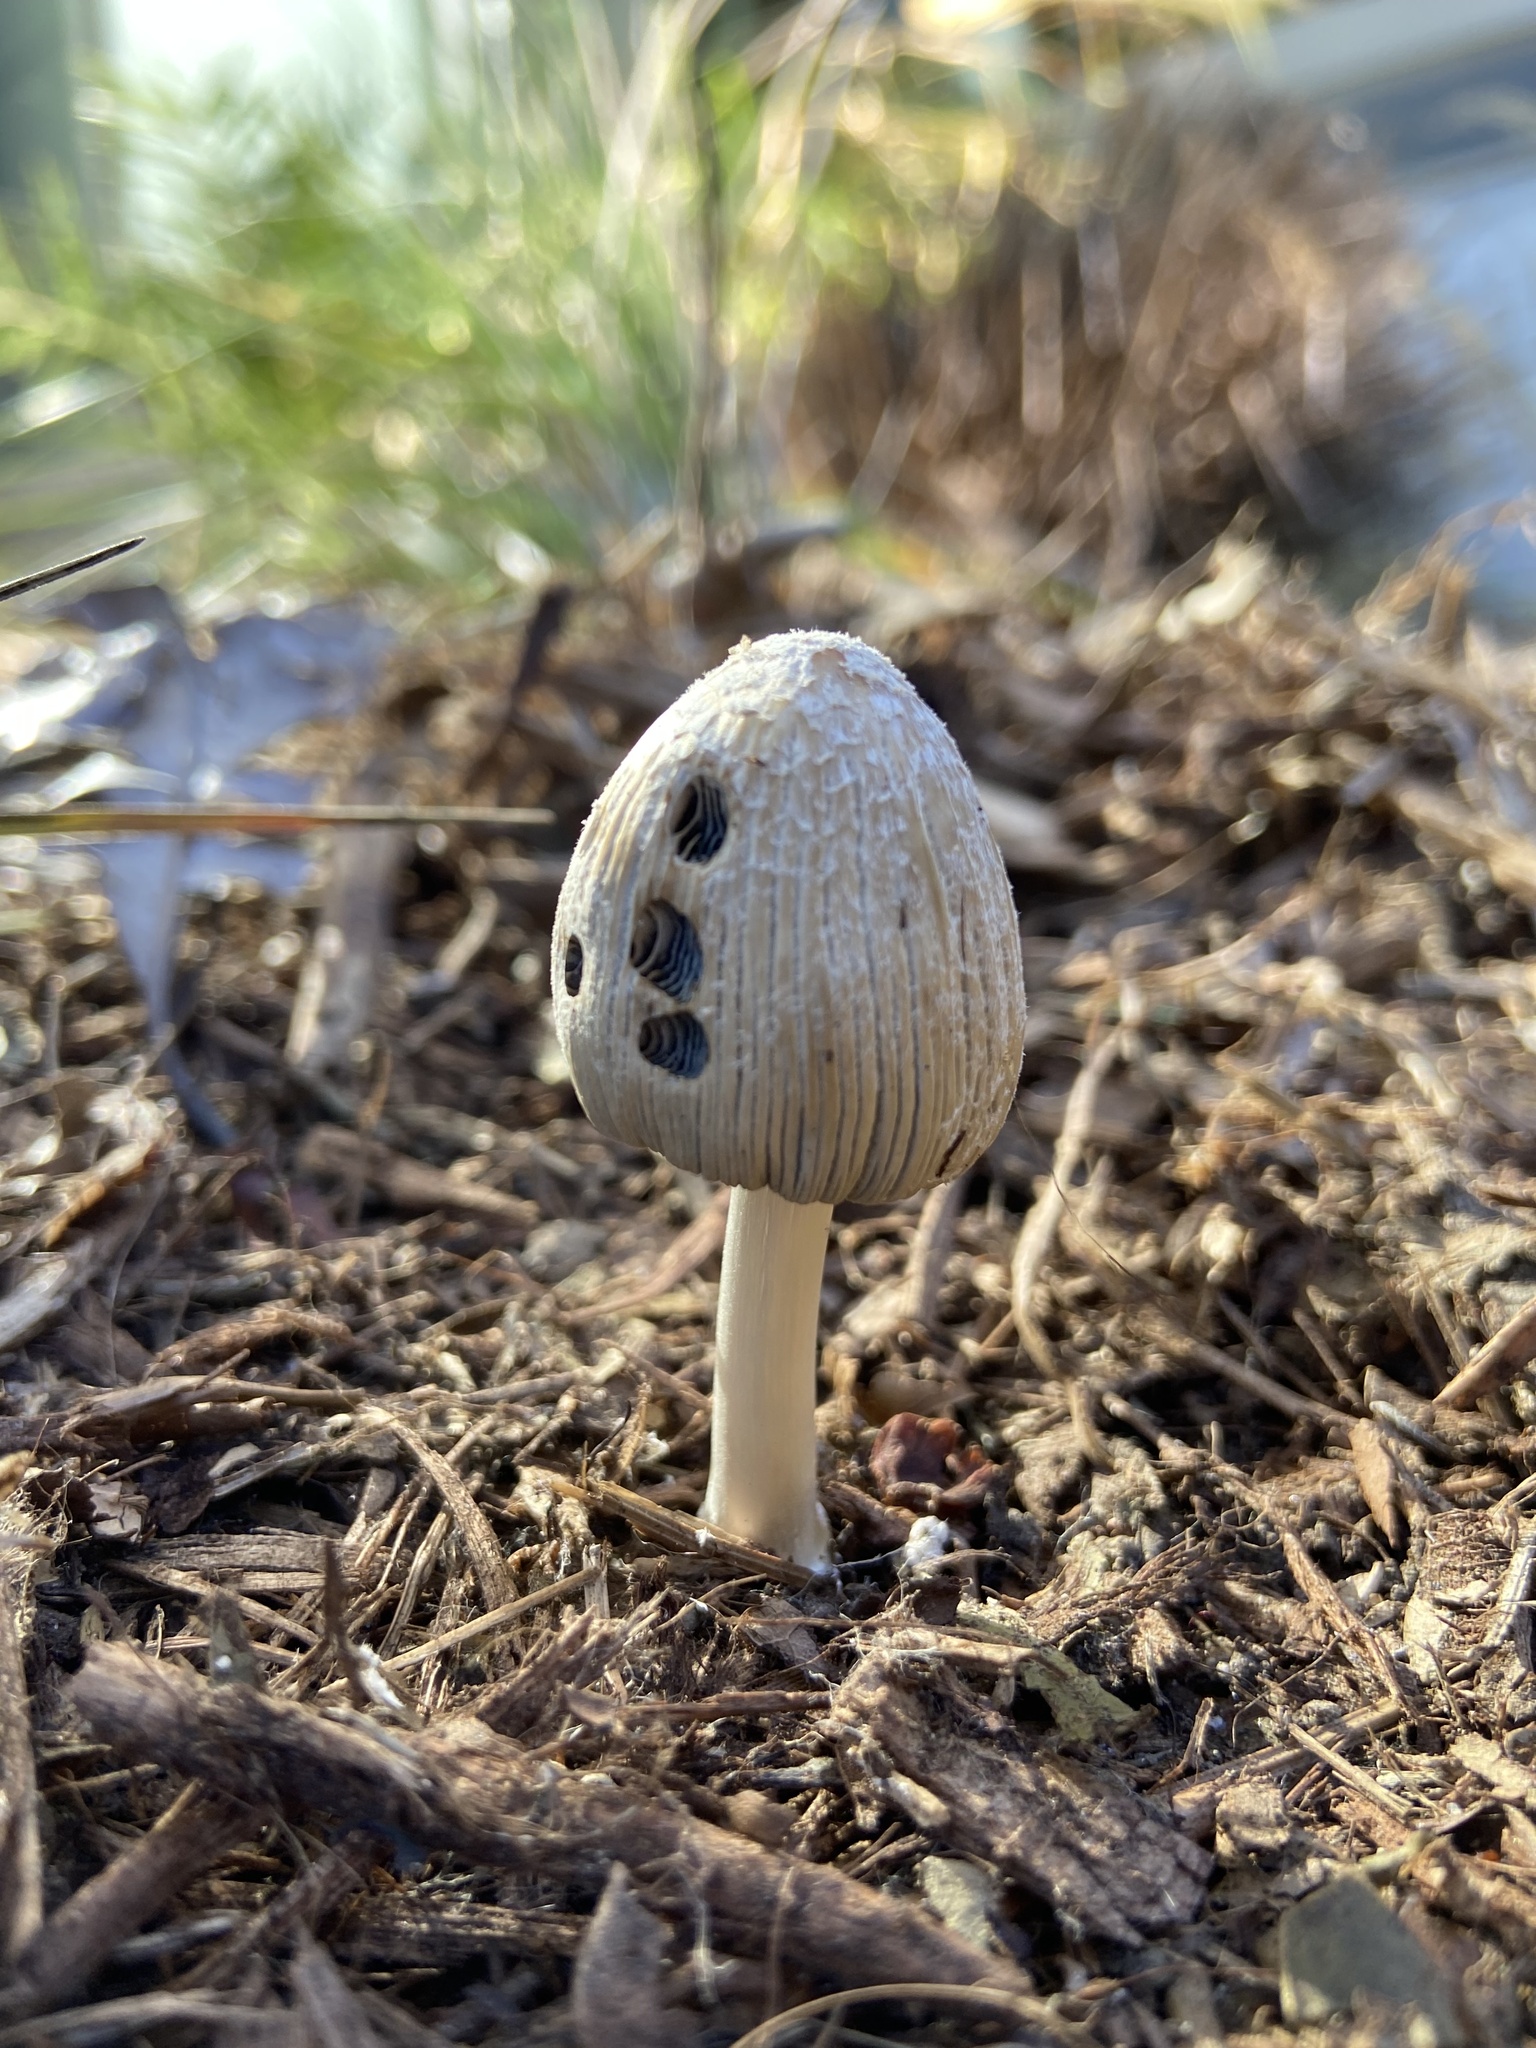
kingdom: Fungi
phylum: Basidiomycota
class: Agaricomycetes
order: Agaricales
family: Psathyrellaceae
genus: Coprinellus
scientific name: Coprinellus flocculosus
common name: Flocculose inkcap
